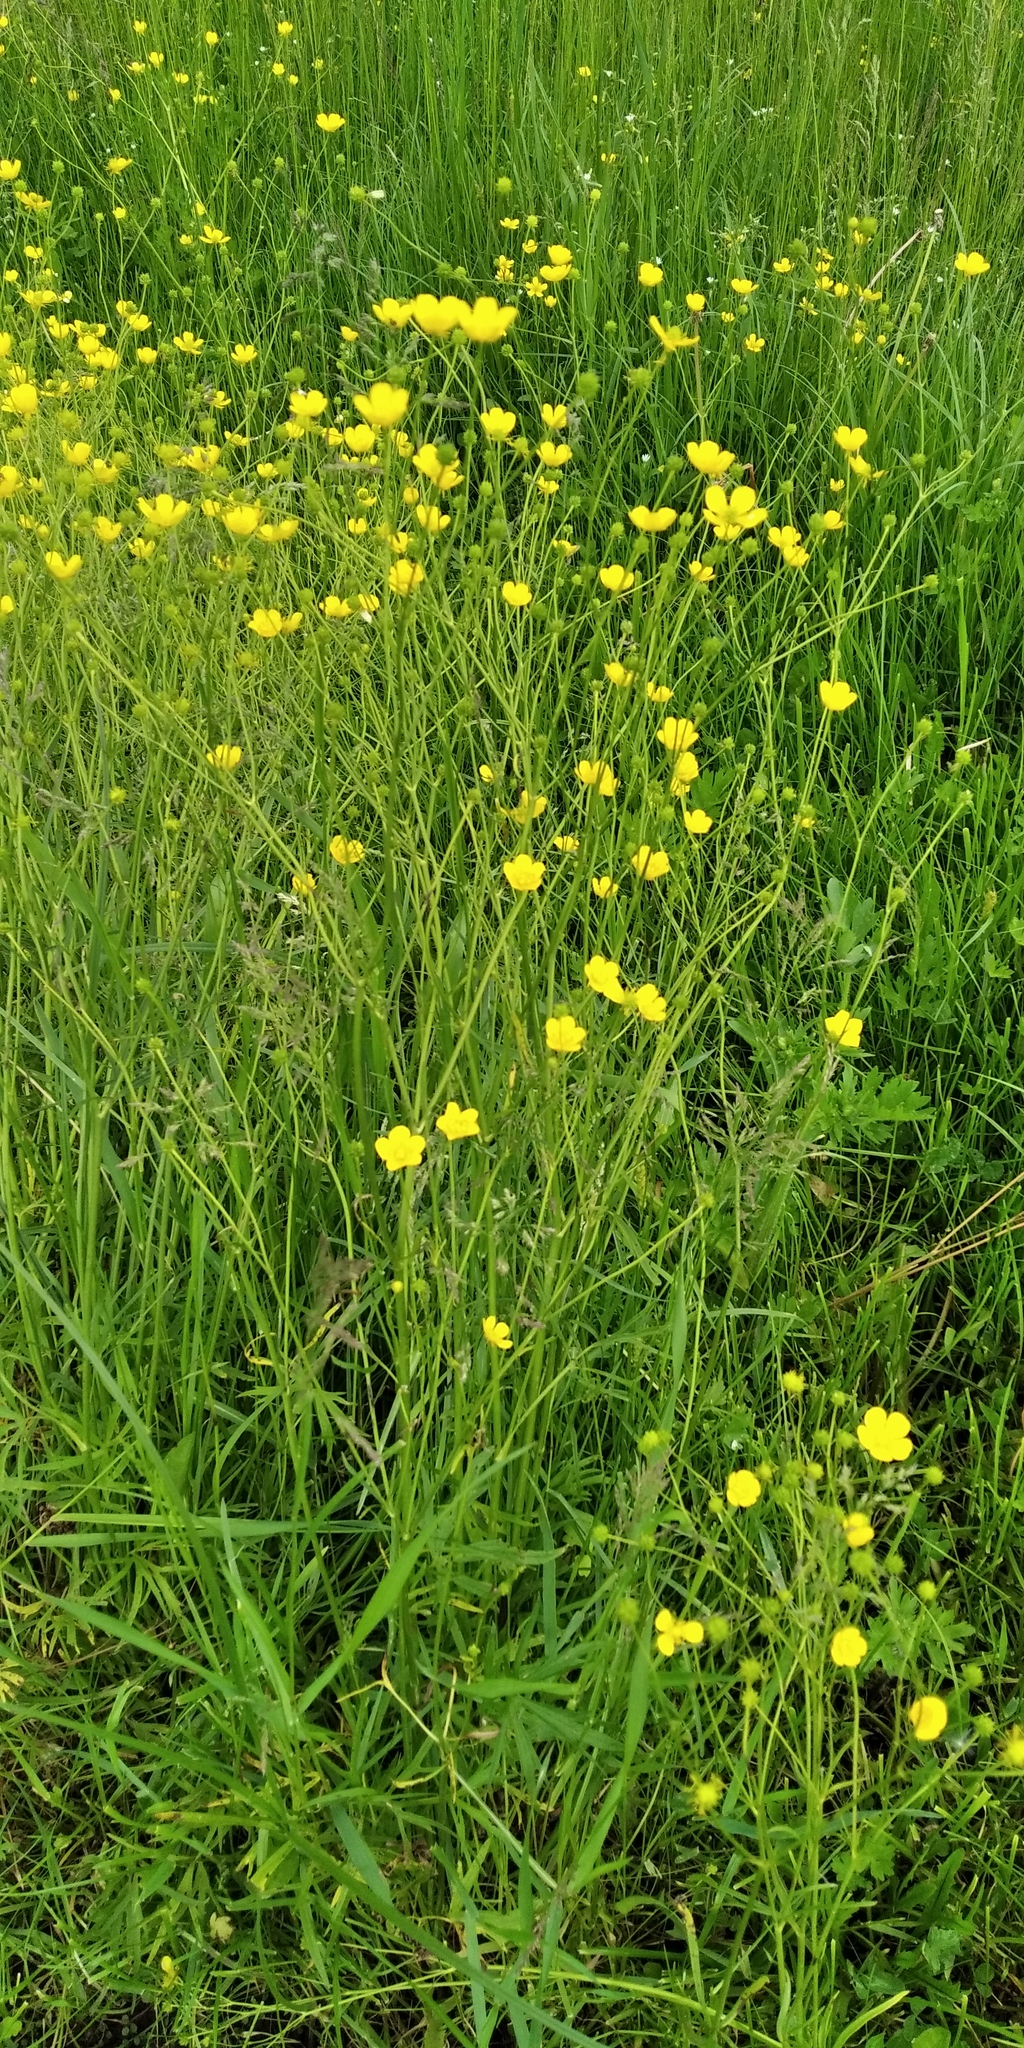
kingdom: Plantae
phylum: Tracheophyta
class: Magnoliopsida
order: Ranunculales
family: Ranunculaceae
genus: Ranunculus
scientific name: Ranunculus acris
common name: Meadow buttercup
